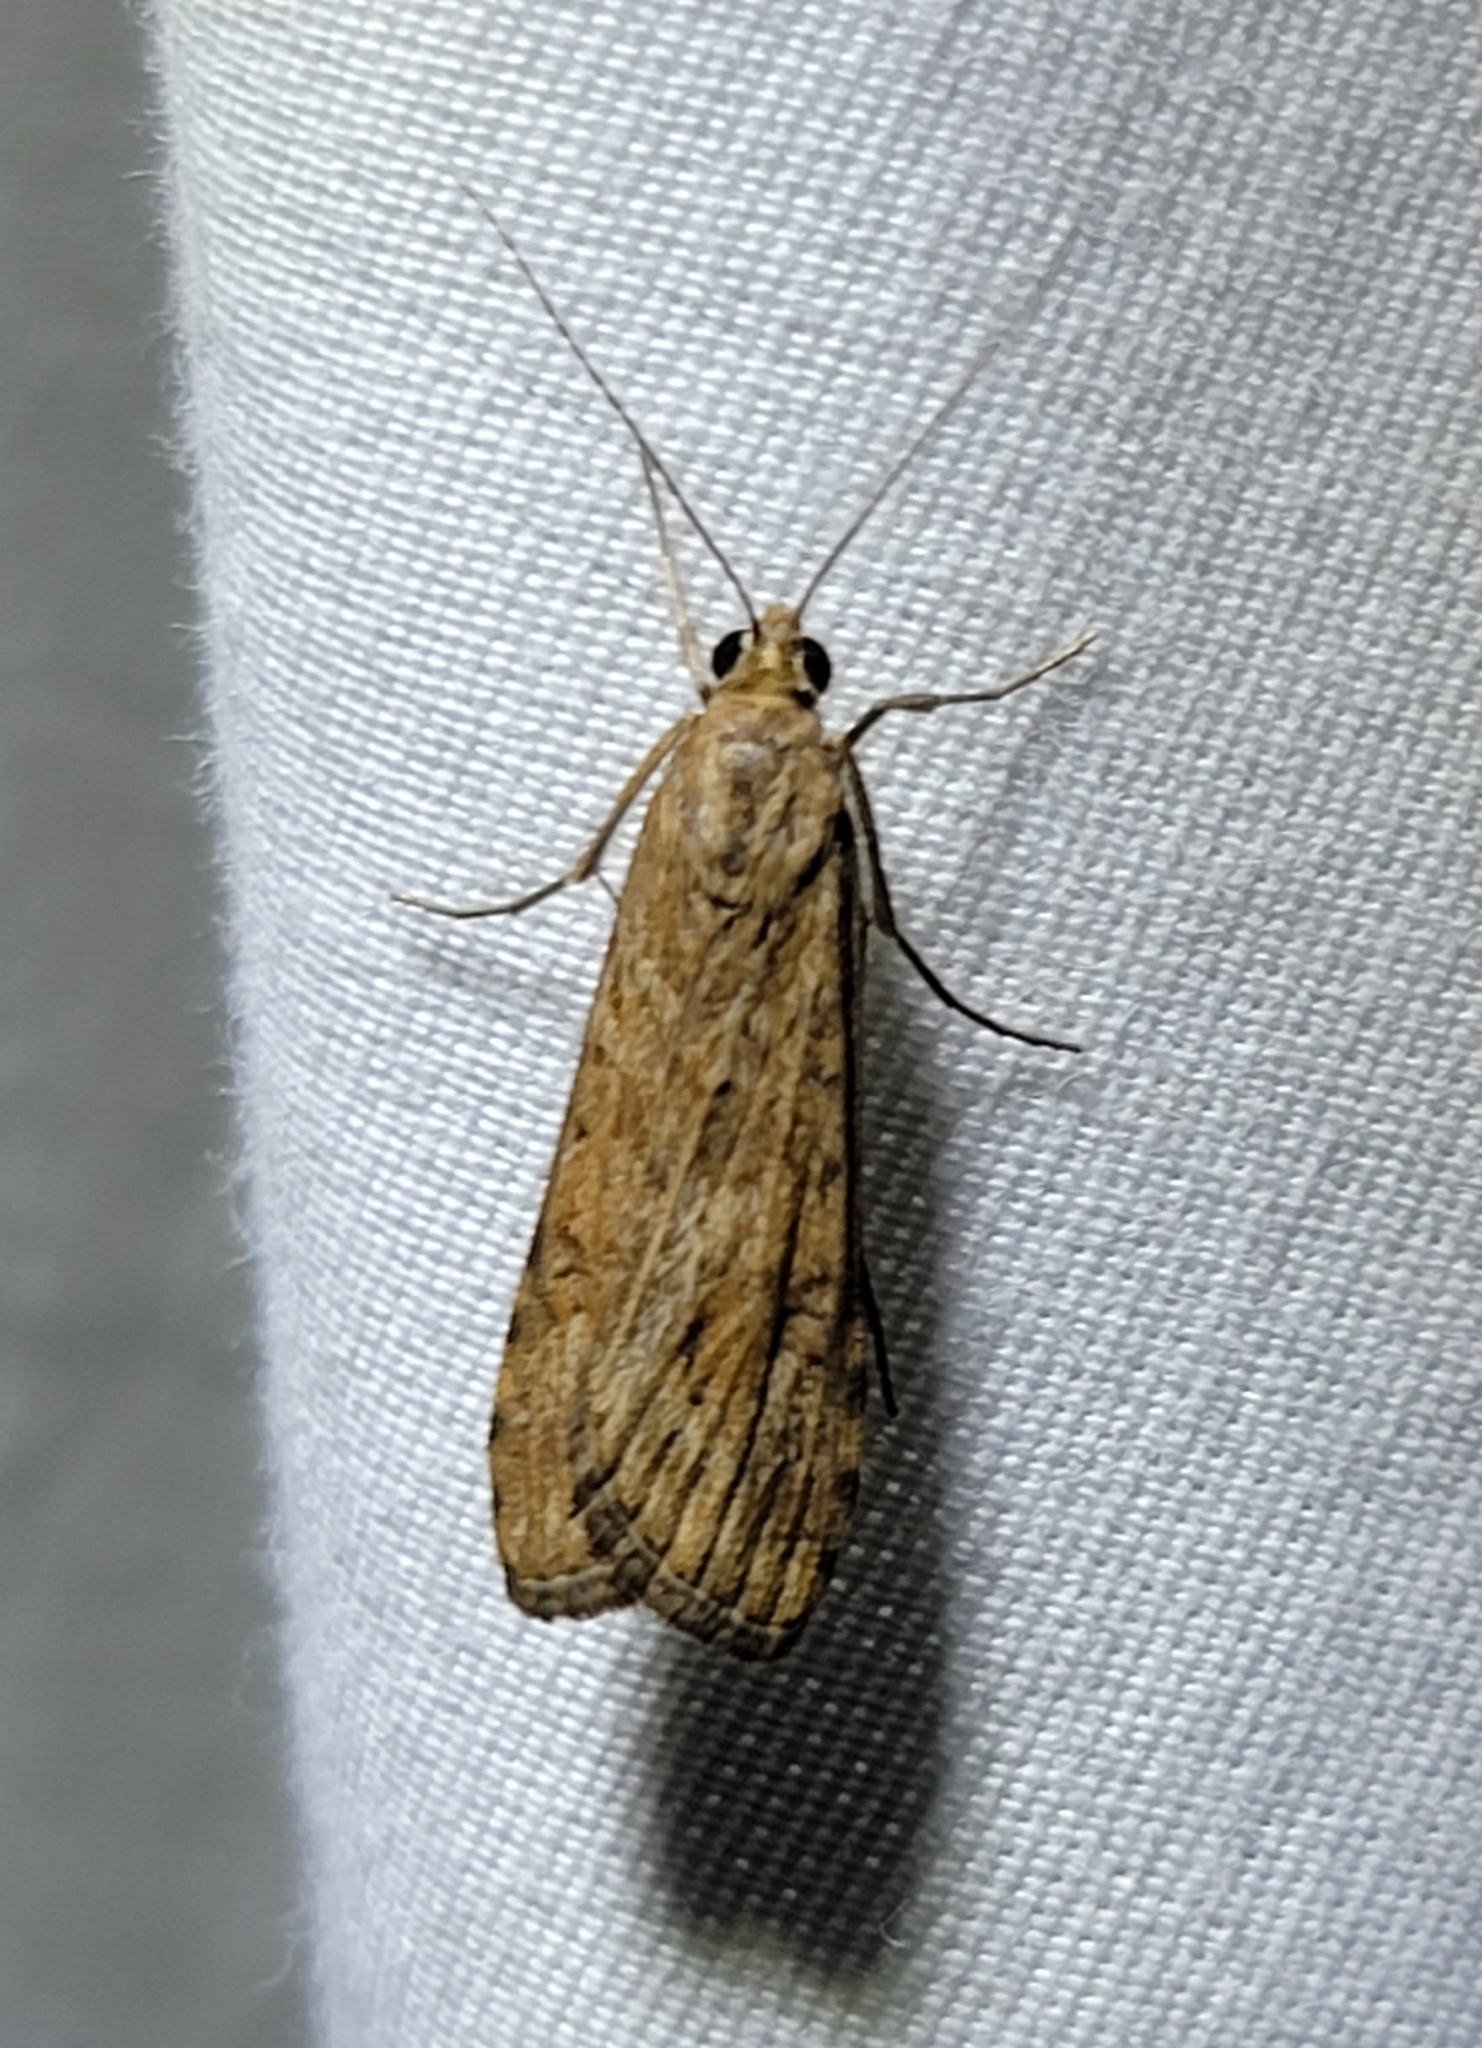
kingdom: Animalia
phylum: Arthropoda
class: Insecta
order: Lepidoptera
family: Crambidae
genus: Nomophila
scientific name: Nomophila nearctica
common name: American rush veneer
